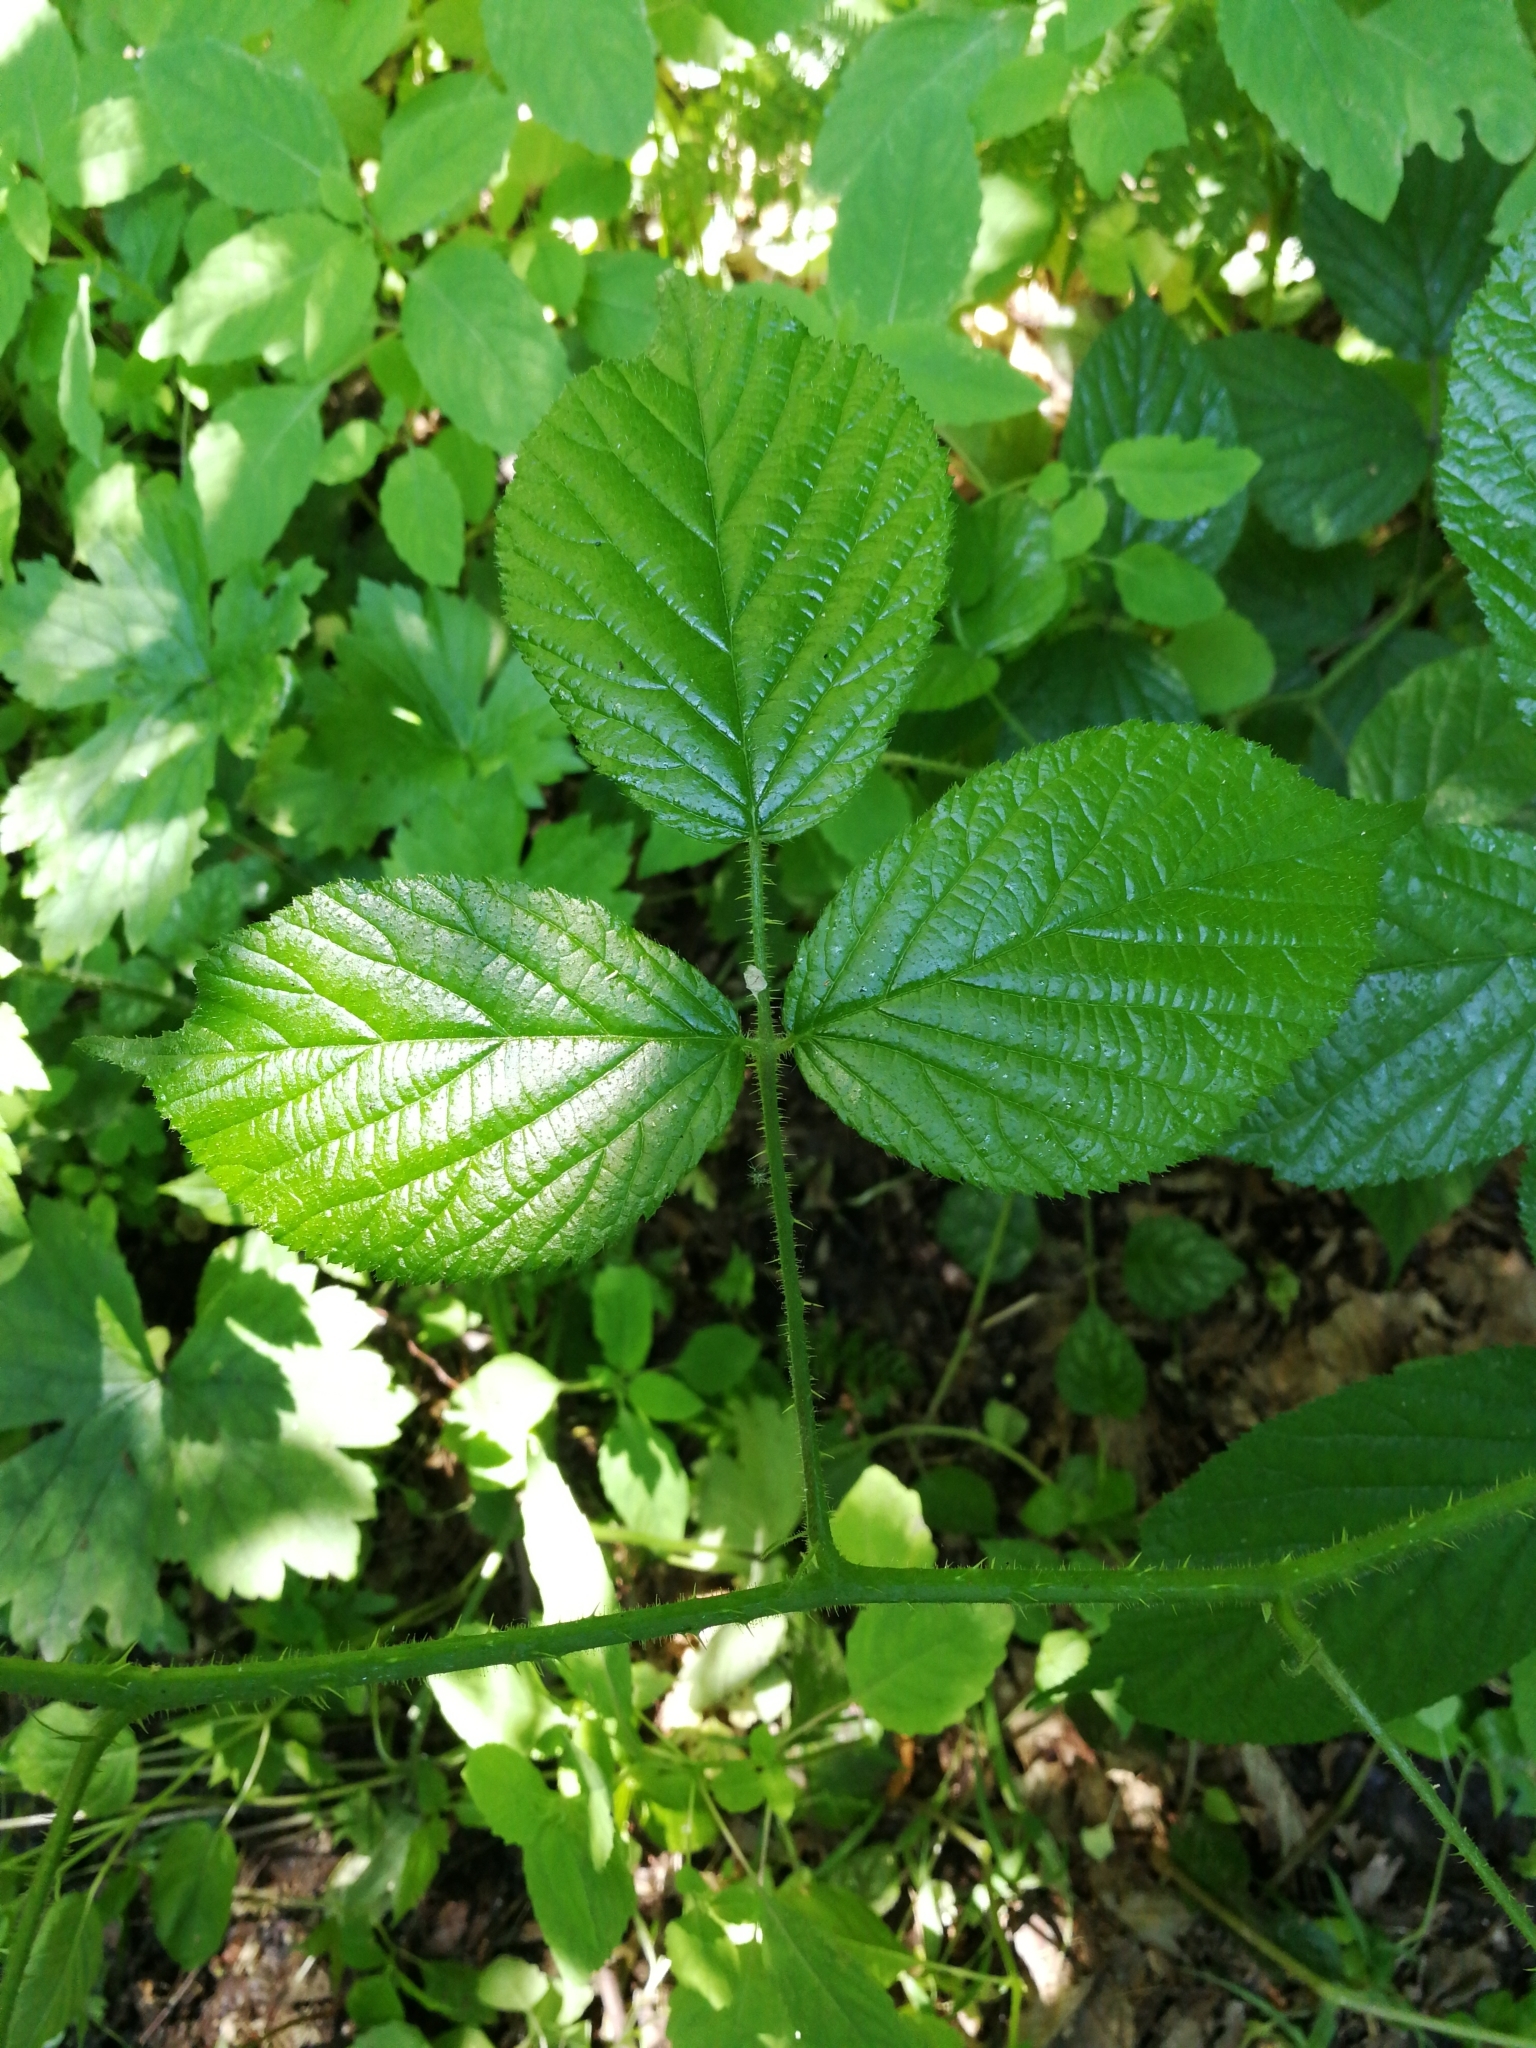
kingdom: Plantae
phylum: Tracheophyta
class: Magnoliopsida
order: Rosales
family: Rosaceae
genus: Rubus
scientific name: Rubus hirtus
